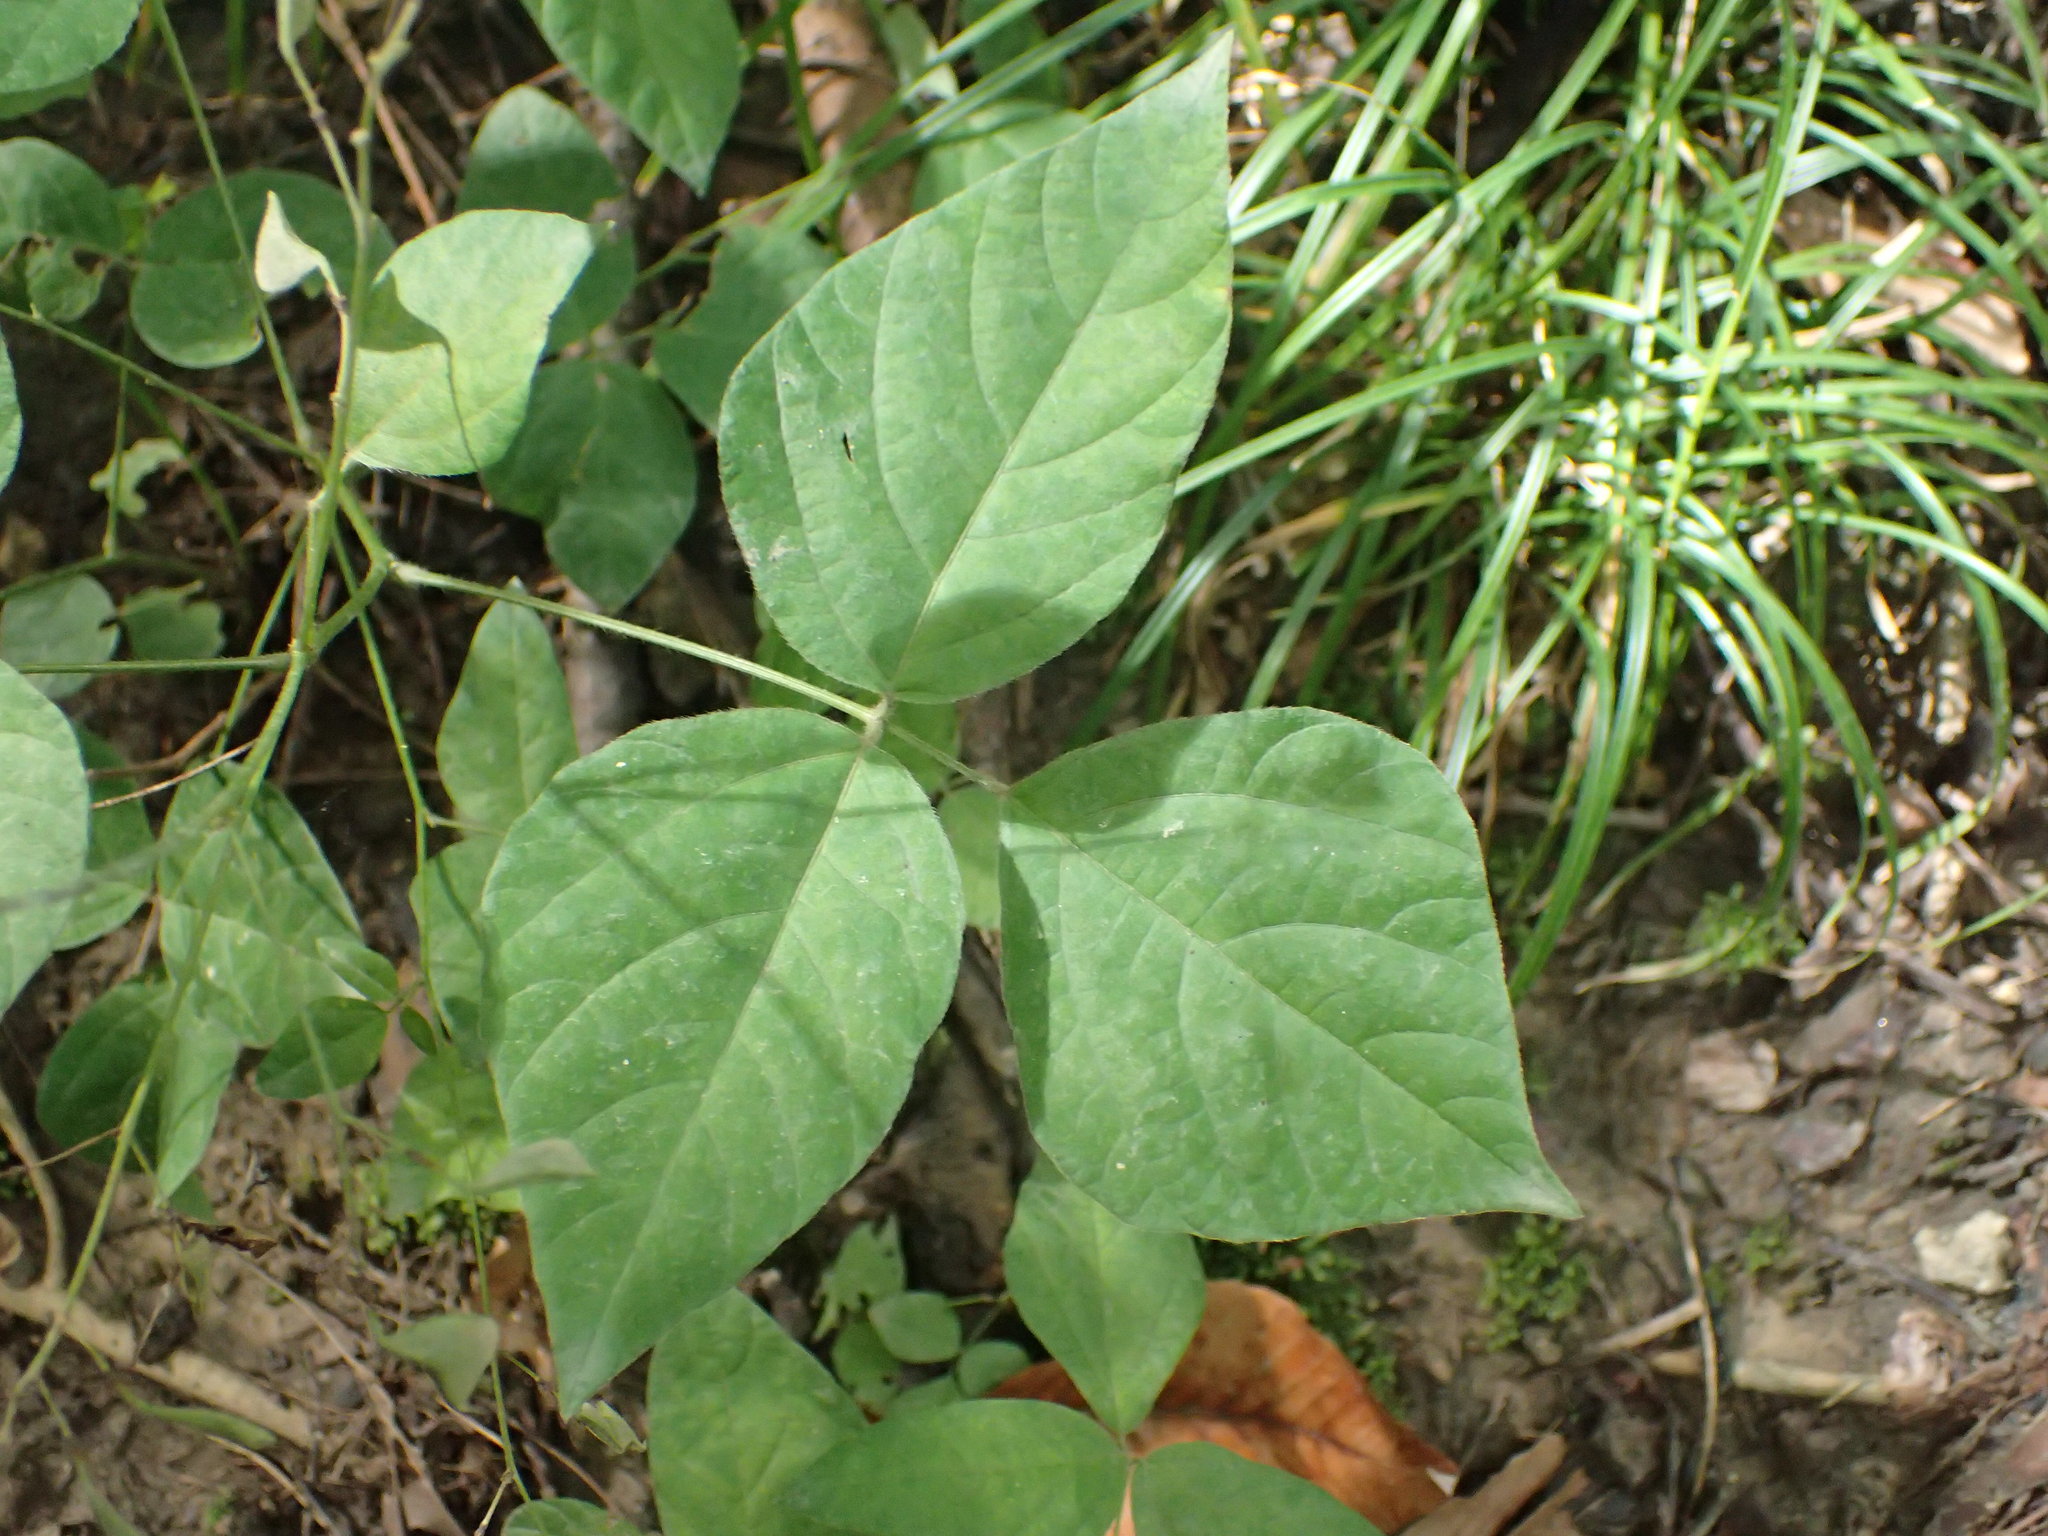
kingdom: Plantae
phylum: Tracheophyta
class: Magnoliopsida
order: Fabales
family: Fabaceae
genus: Amphicarpaea
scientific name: Amphicarpaea bracteata
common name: American hog peanut
